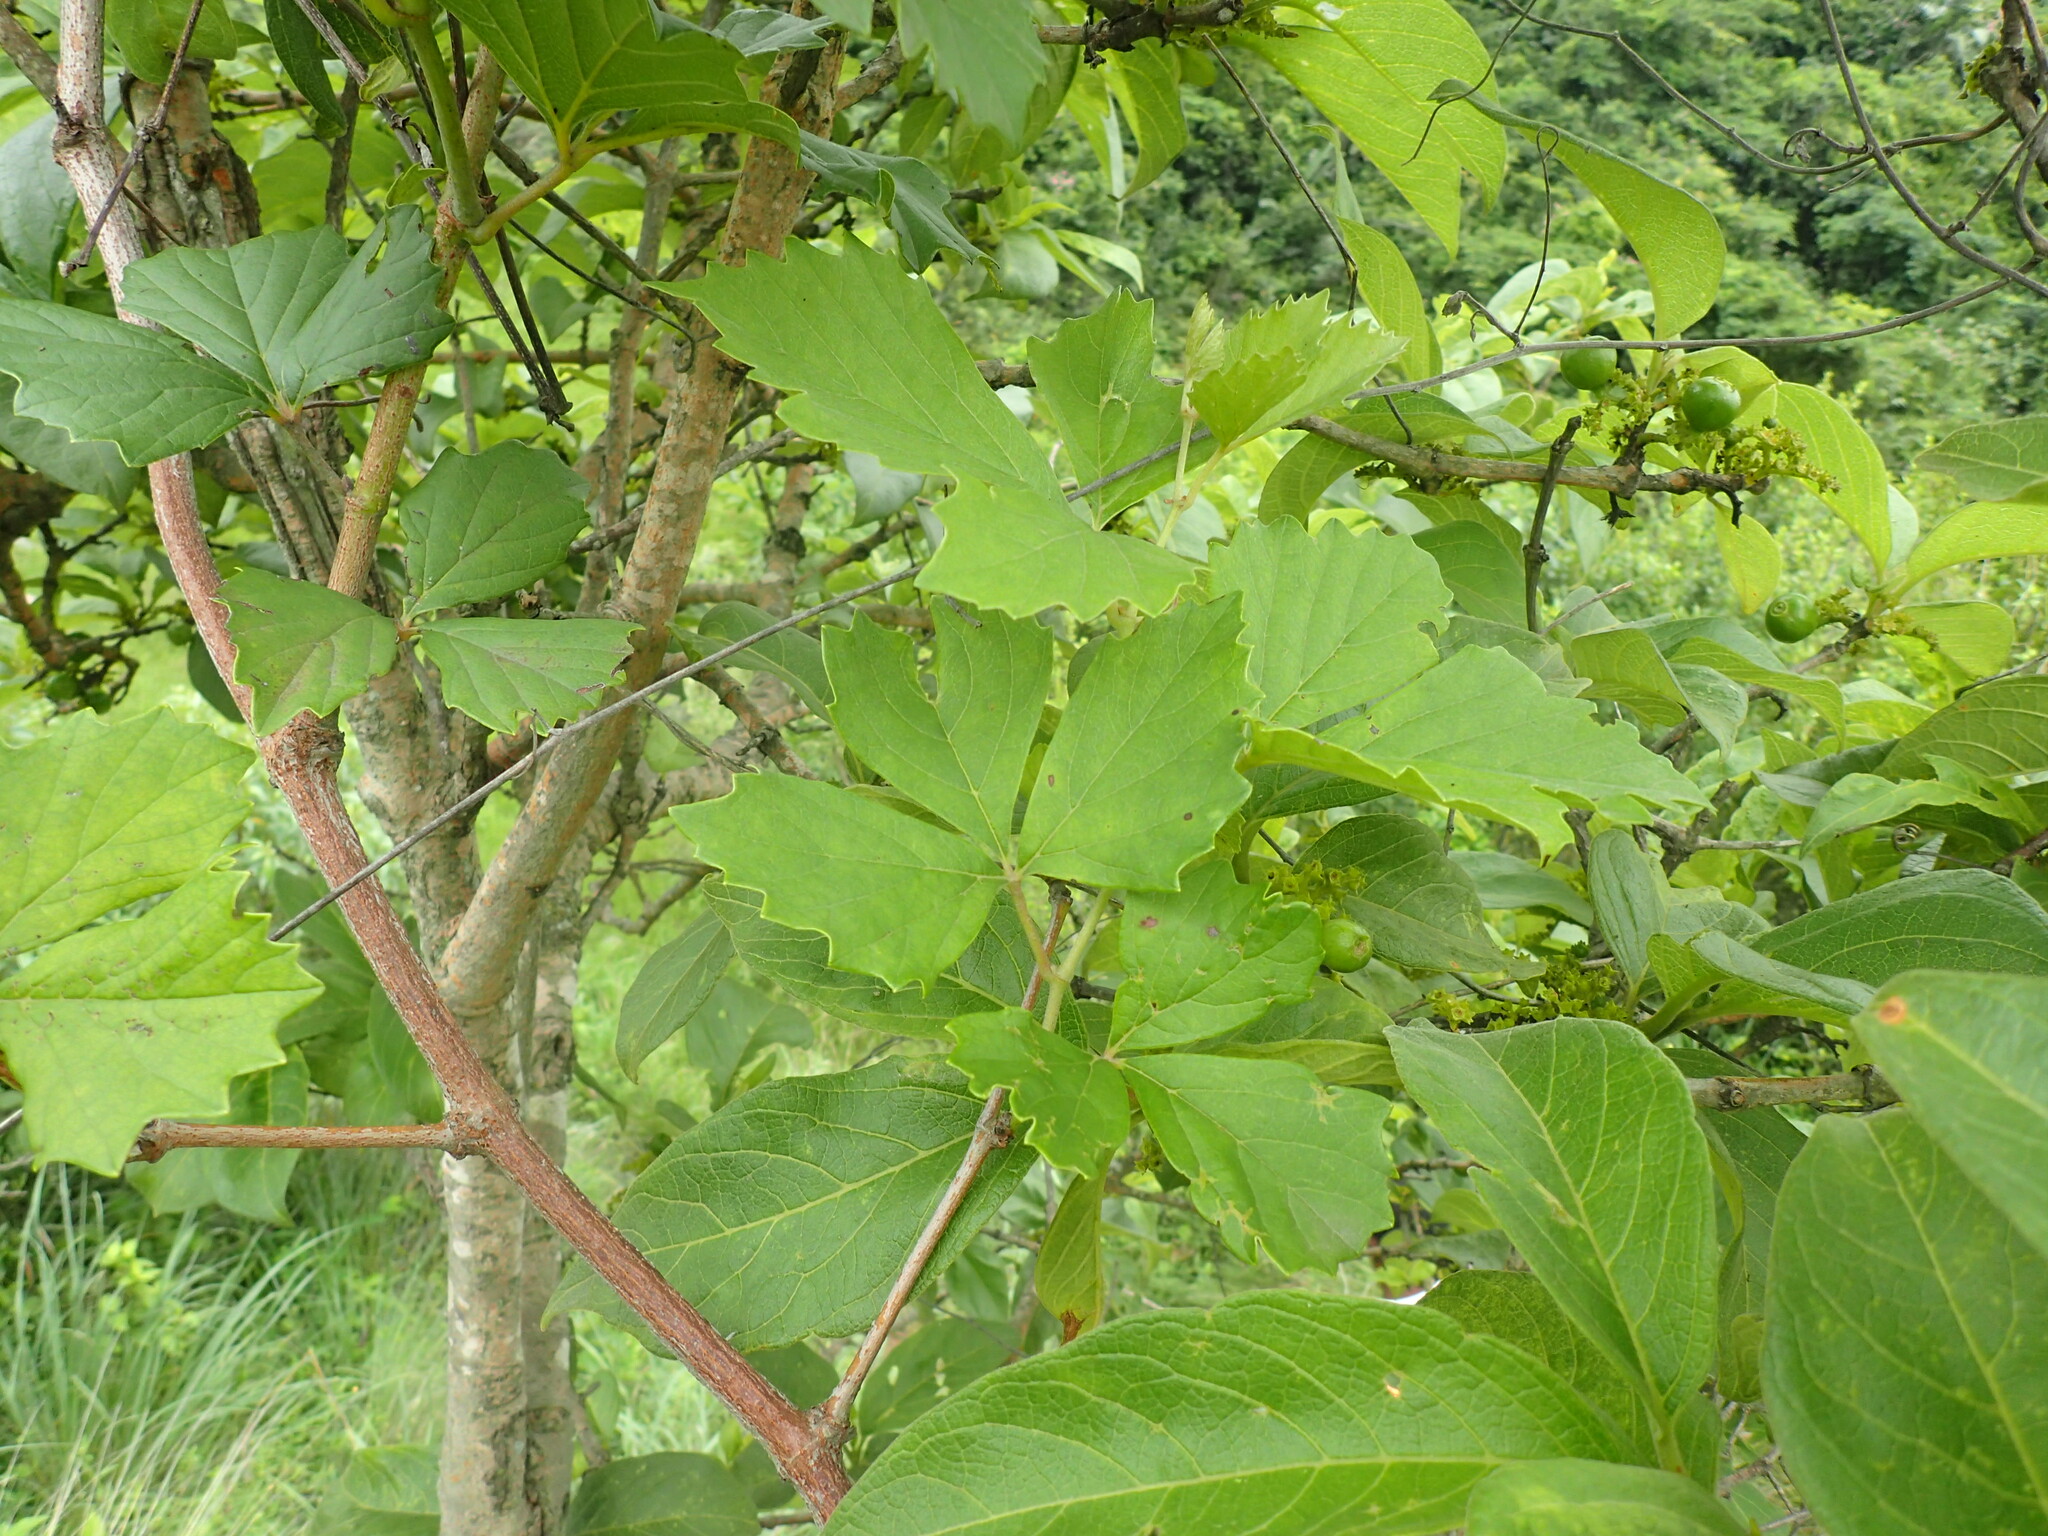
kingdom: Plantae
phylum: Tracheophyta
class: Magnoliopsida
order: Vitales
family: Vitaceae
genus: Rhoicissus
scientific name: Rhoicissus tridentata
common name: Common forest grape
